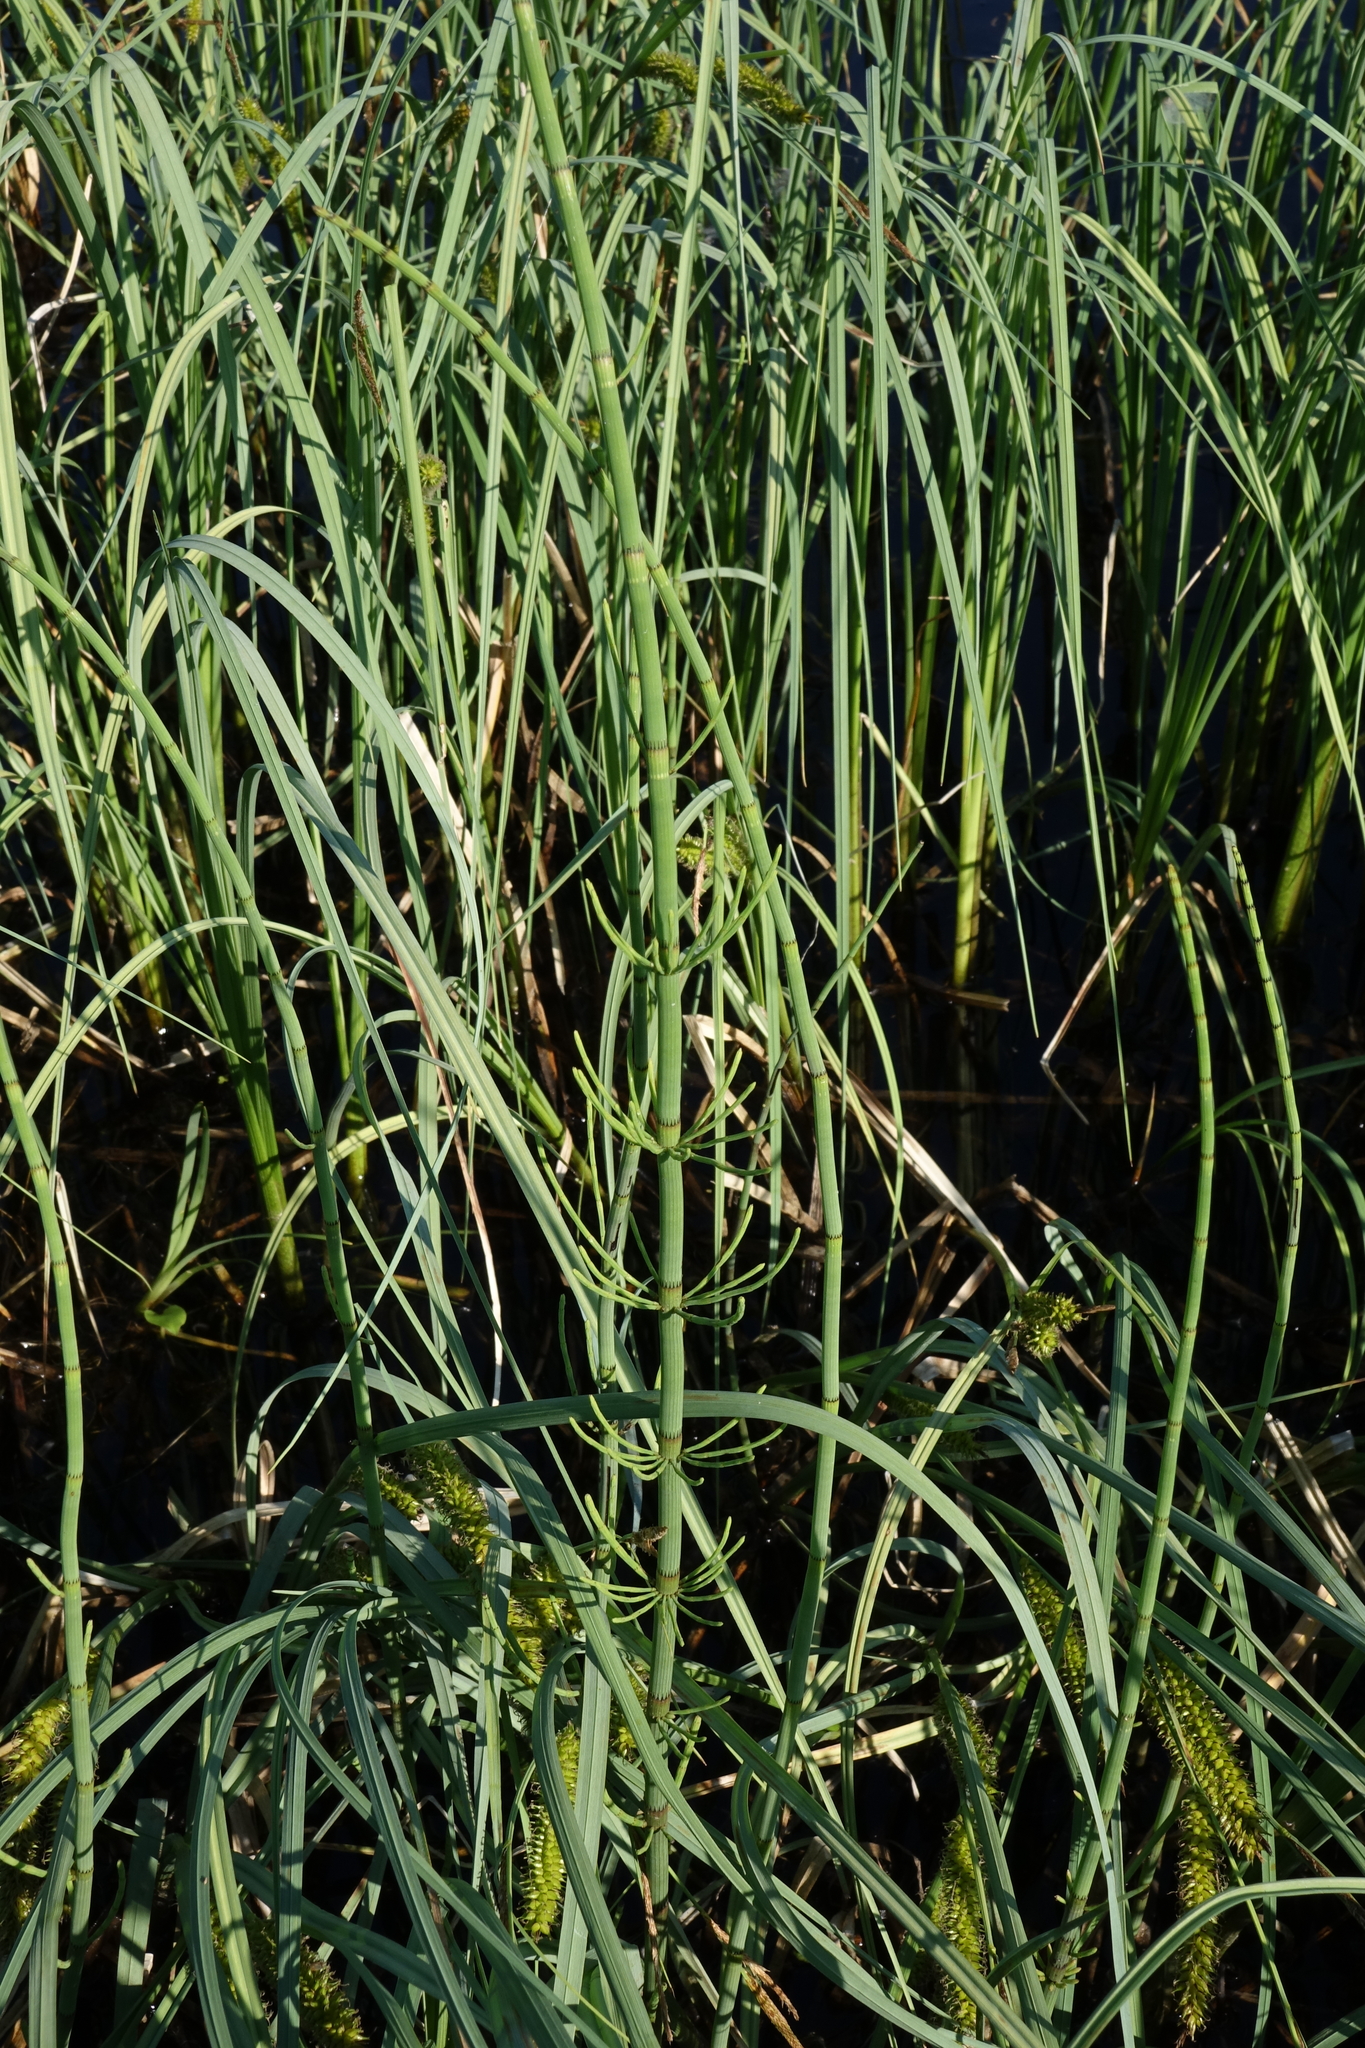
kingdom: Plantae
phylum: Tracheophyta
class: Liliopsida
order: Poales
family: Cyperaceae
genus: Carex
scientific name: Carex rostrata
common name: Bottle sedge
